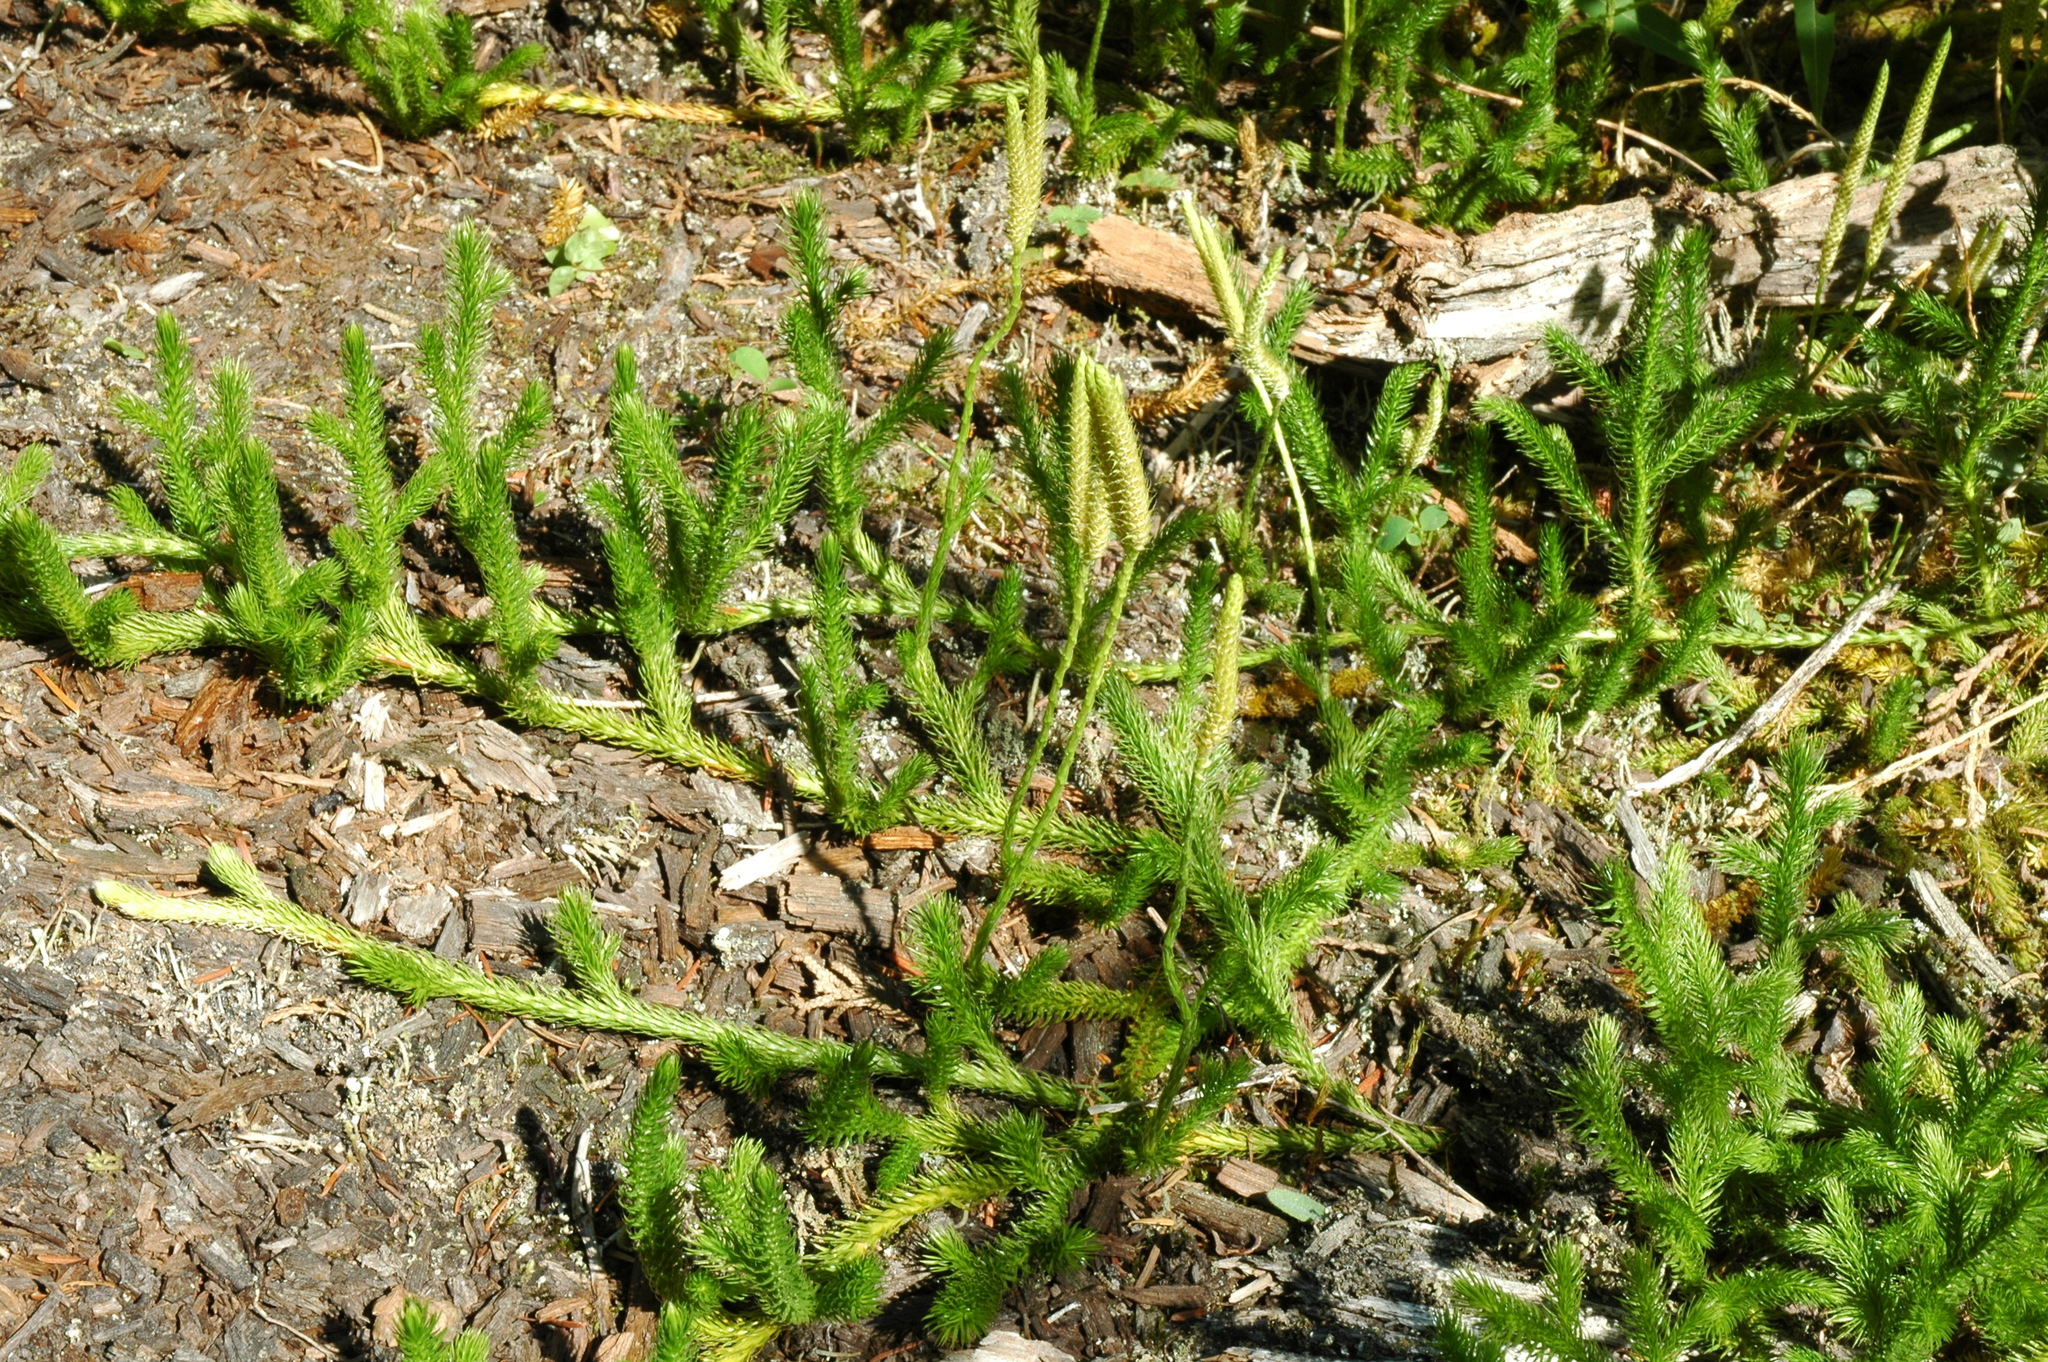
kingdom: Plantae
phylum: Tracheophyta
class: Lycopodiopsida
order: Lycopodiales
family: Lycopodiaceae
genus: Lycopodium
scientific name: Lycopodium clavatum
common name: Stag's-horn clubmoss
